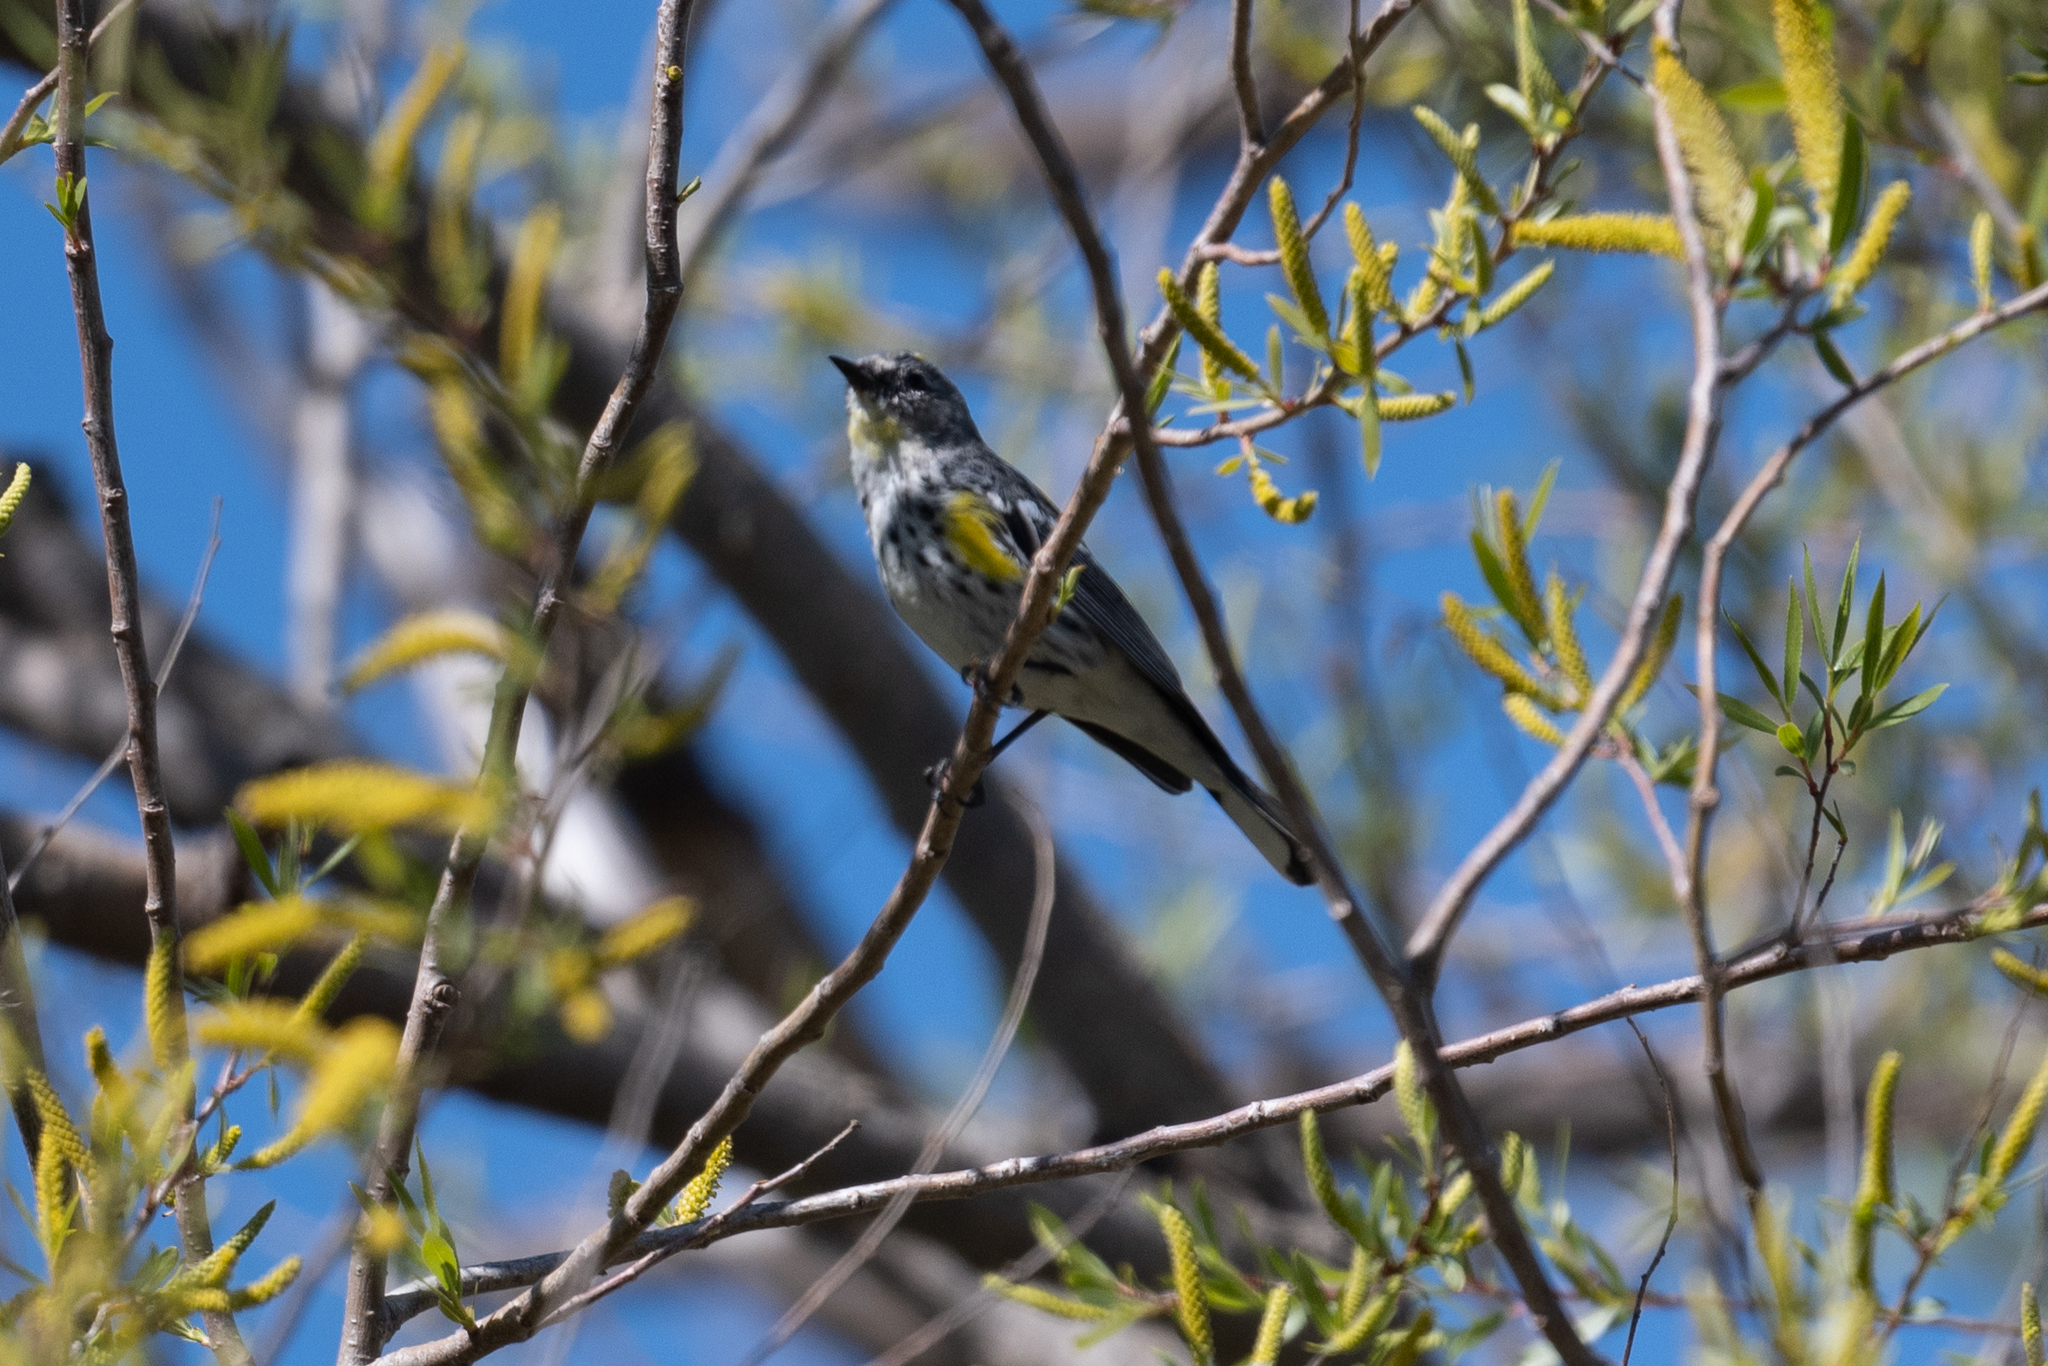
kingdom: Animalia
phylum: Chordata
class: Aves
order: Passeriformes
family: Parulidae
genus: Setophaga
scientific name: Setophaga coronata
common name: Myrtle warbler
